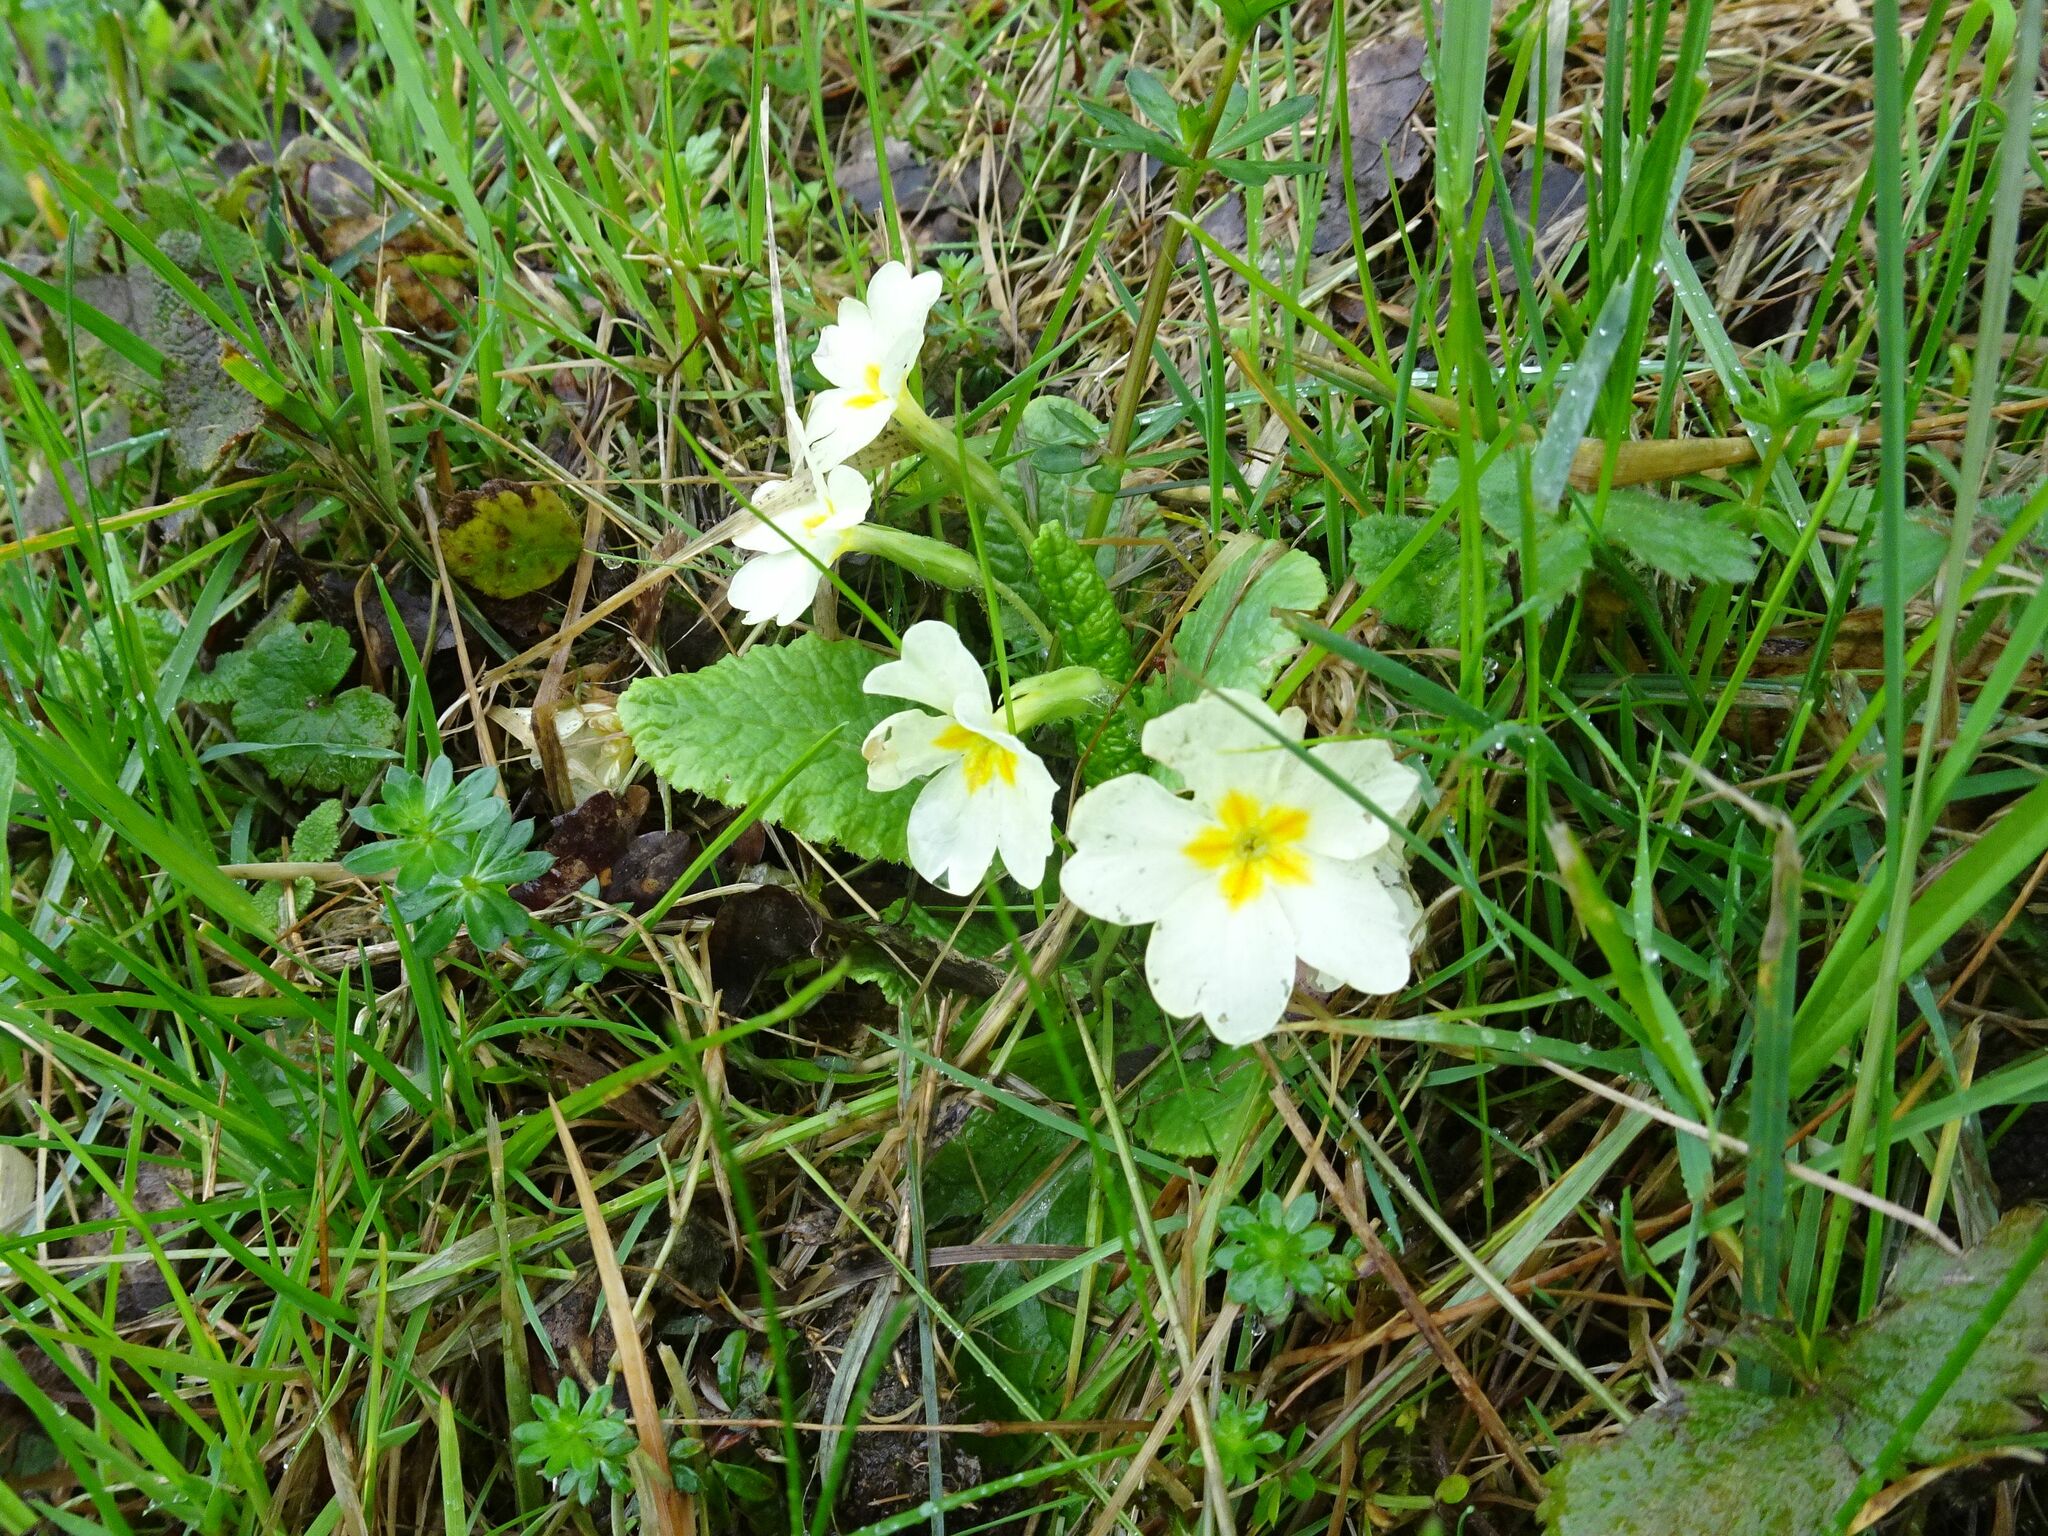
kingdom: Plantae
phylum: Tracheophyta
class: Magnoliopsida
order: Ericales
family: Primulaceae
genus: Primula
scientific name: Primula vulgaris
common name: Primrose
